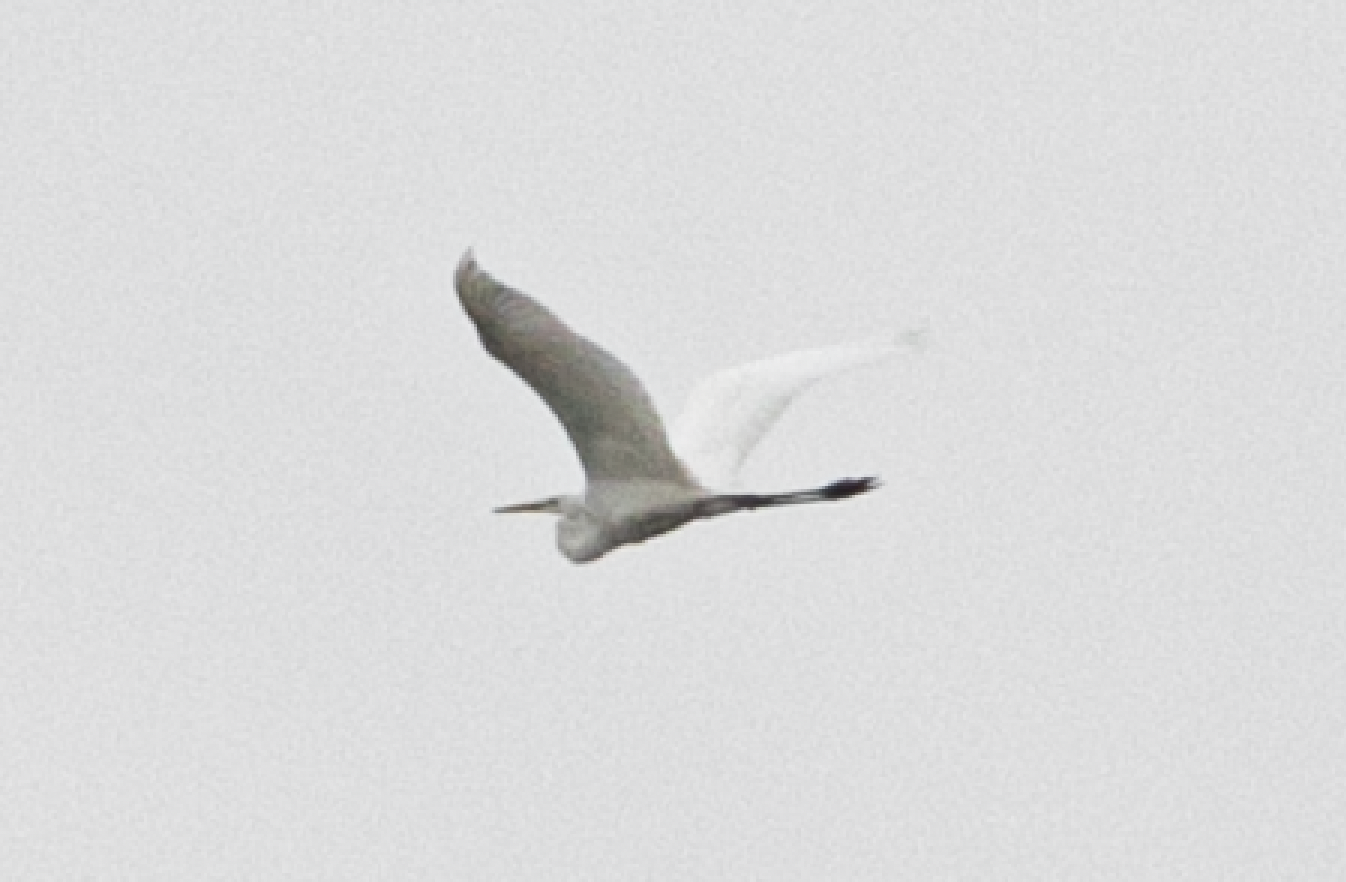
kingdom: Animalia
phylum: Chordata
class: Aves
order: Pelecaniformes
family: Ardeidae
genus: Ardea
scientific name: Ardea alba
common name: Great egret
